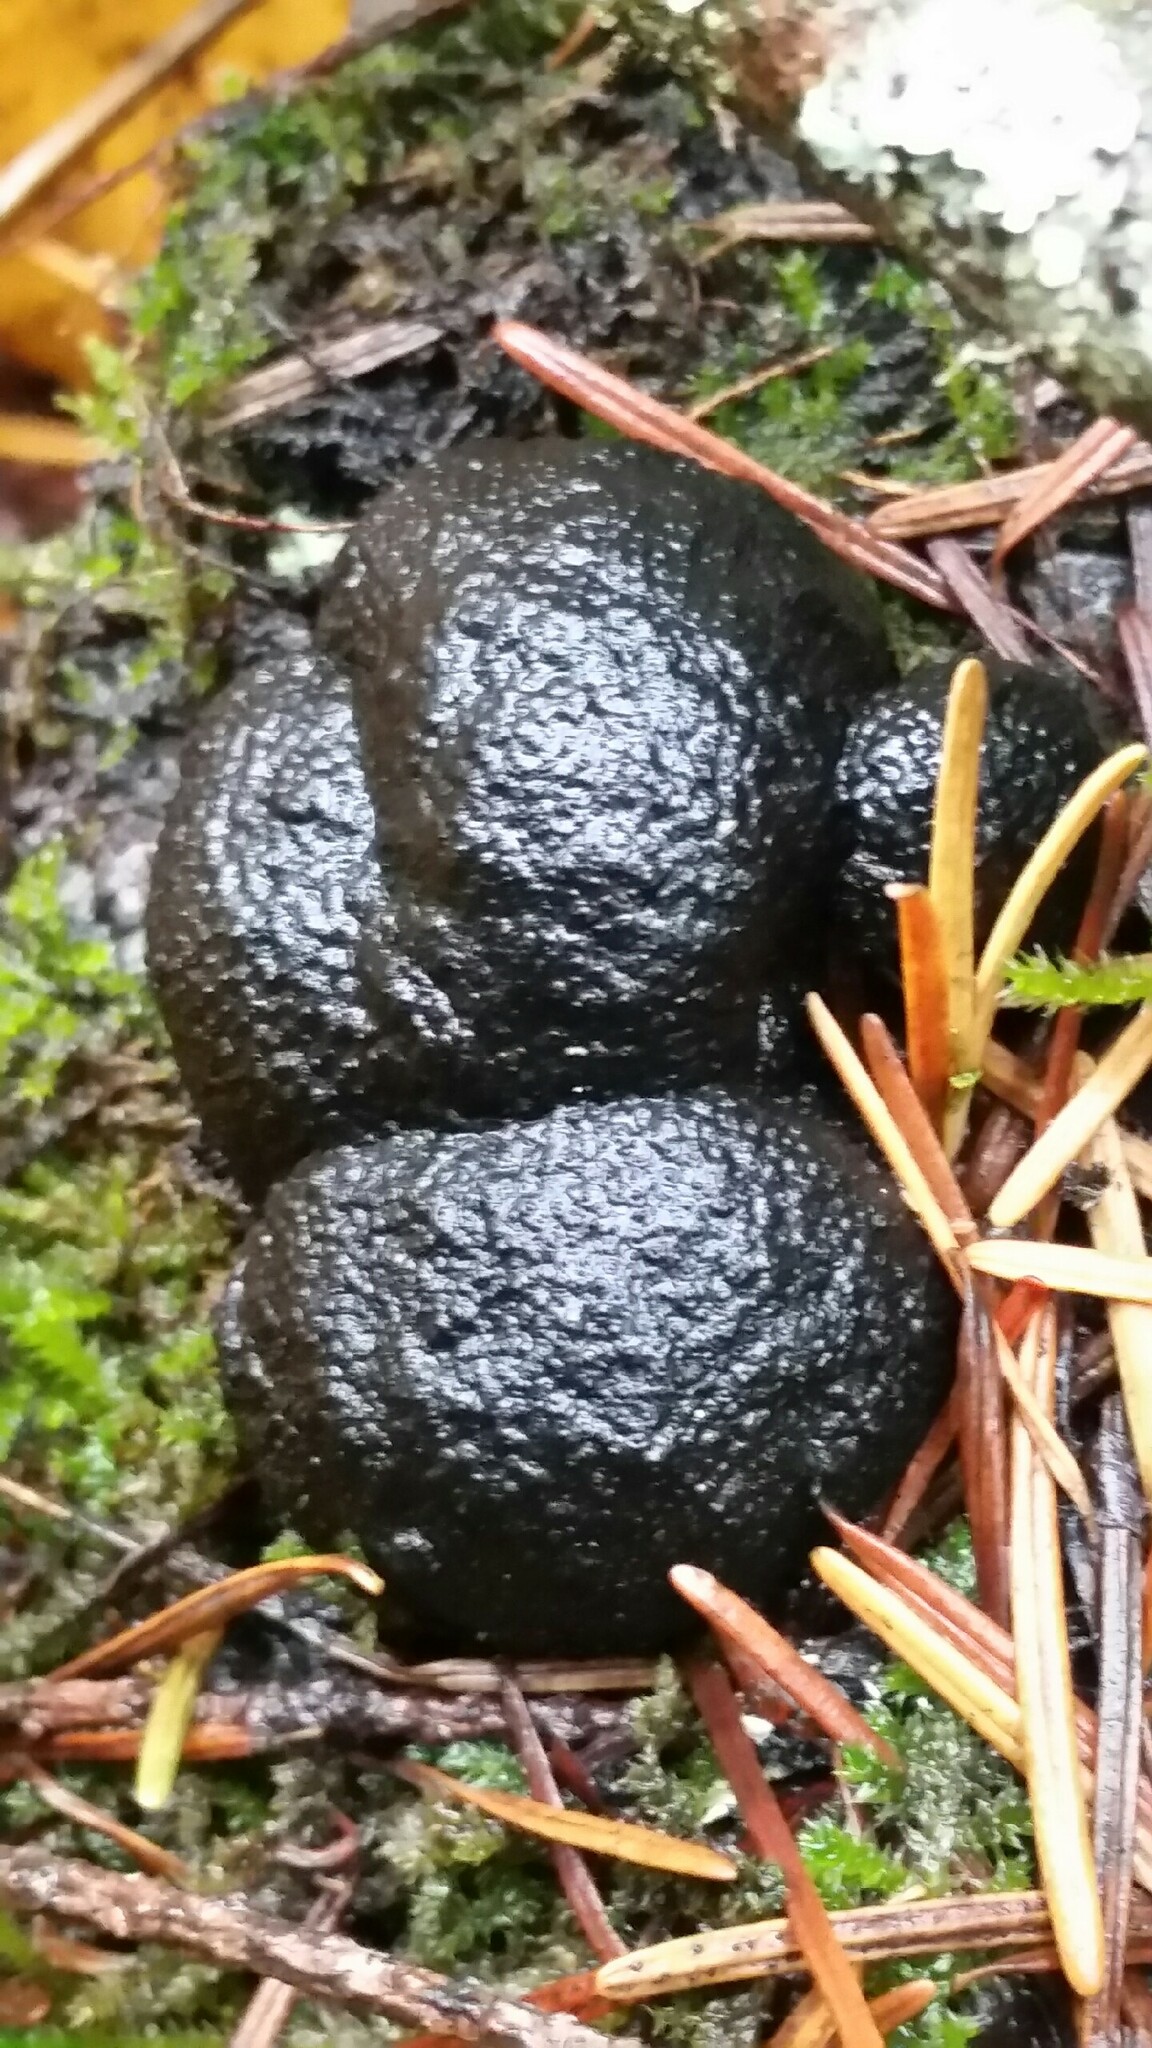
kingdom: Fungi
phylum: Ascomycota
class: Sordariomycetes
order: Xylariales
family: Hypoxylaceae
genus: Annulohypoxylon
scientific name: Annulohypoxylon thouarsianum
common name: Cramp balls
